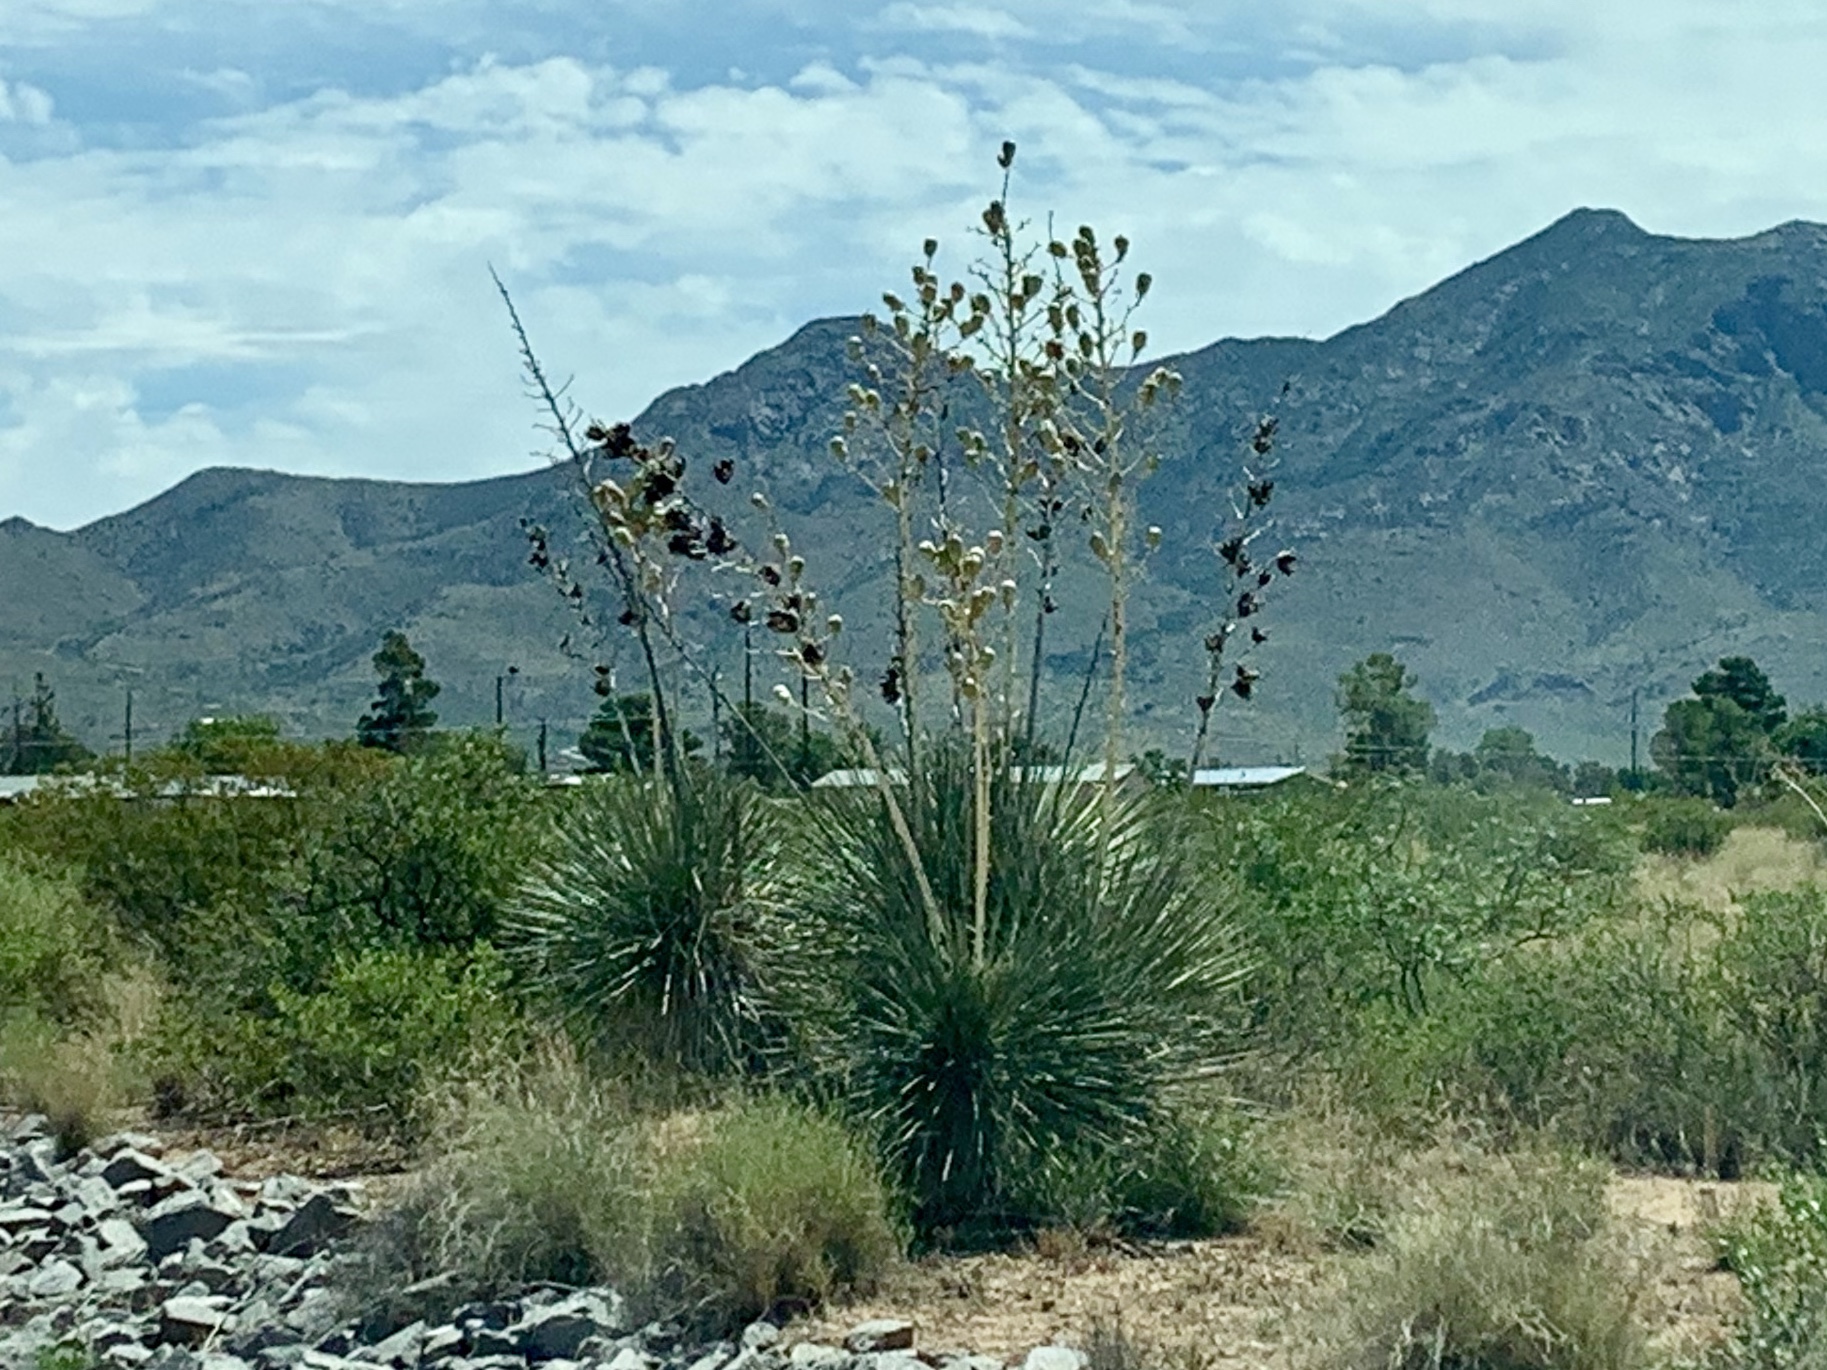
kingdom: Plantae
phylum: Tracheophyta
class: Liliopsida
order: Asparagales
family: Asparagaceae
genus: Yucca
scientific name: Yucca elata
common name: Palmella
